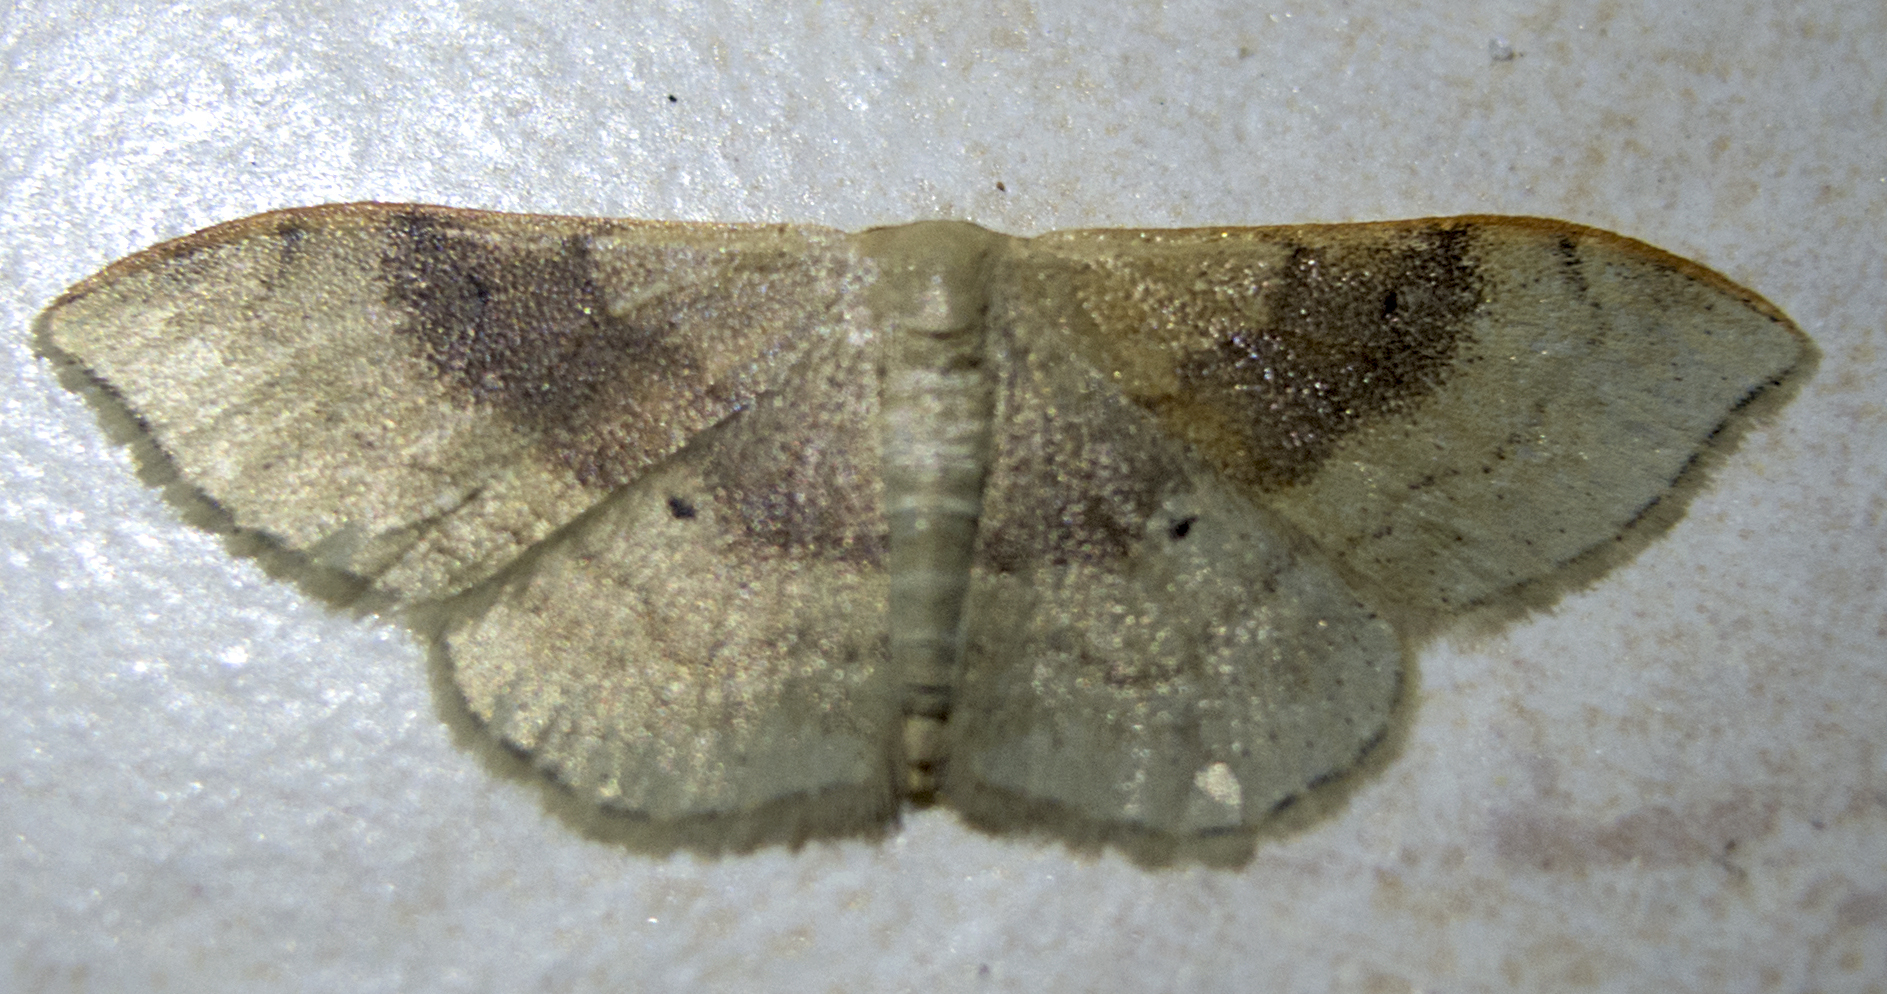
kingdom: Animalia
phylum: Arthropoda
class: Insecta
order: Lepidoptera
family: Geometridae
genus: Idaea
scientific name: Idaea degeneraria
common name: Portland ribbon wave
